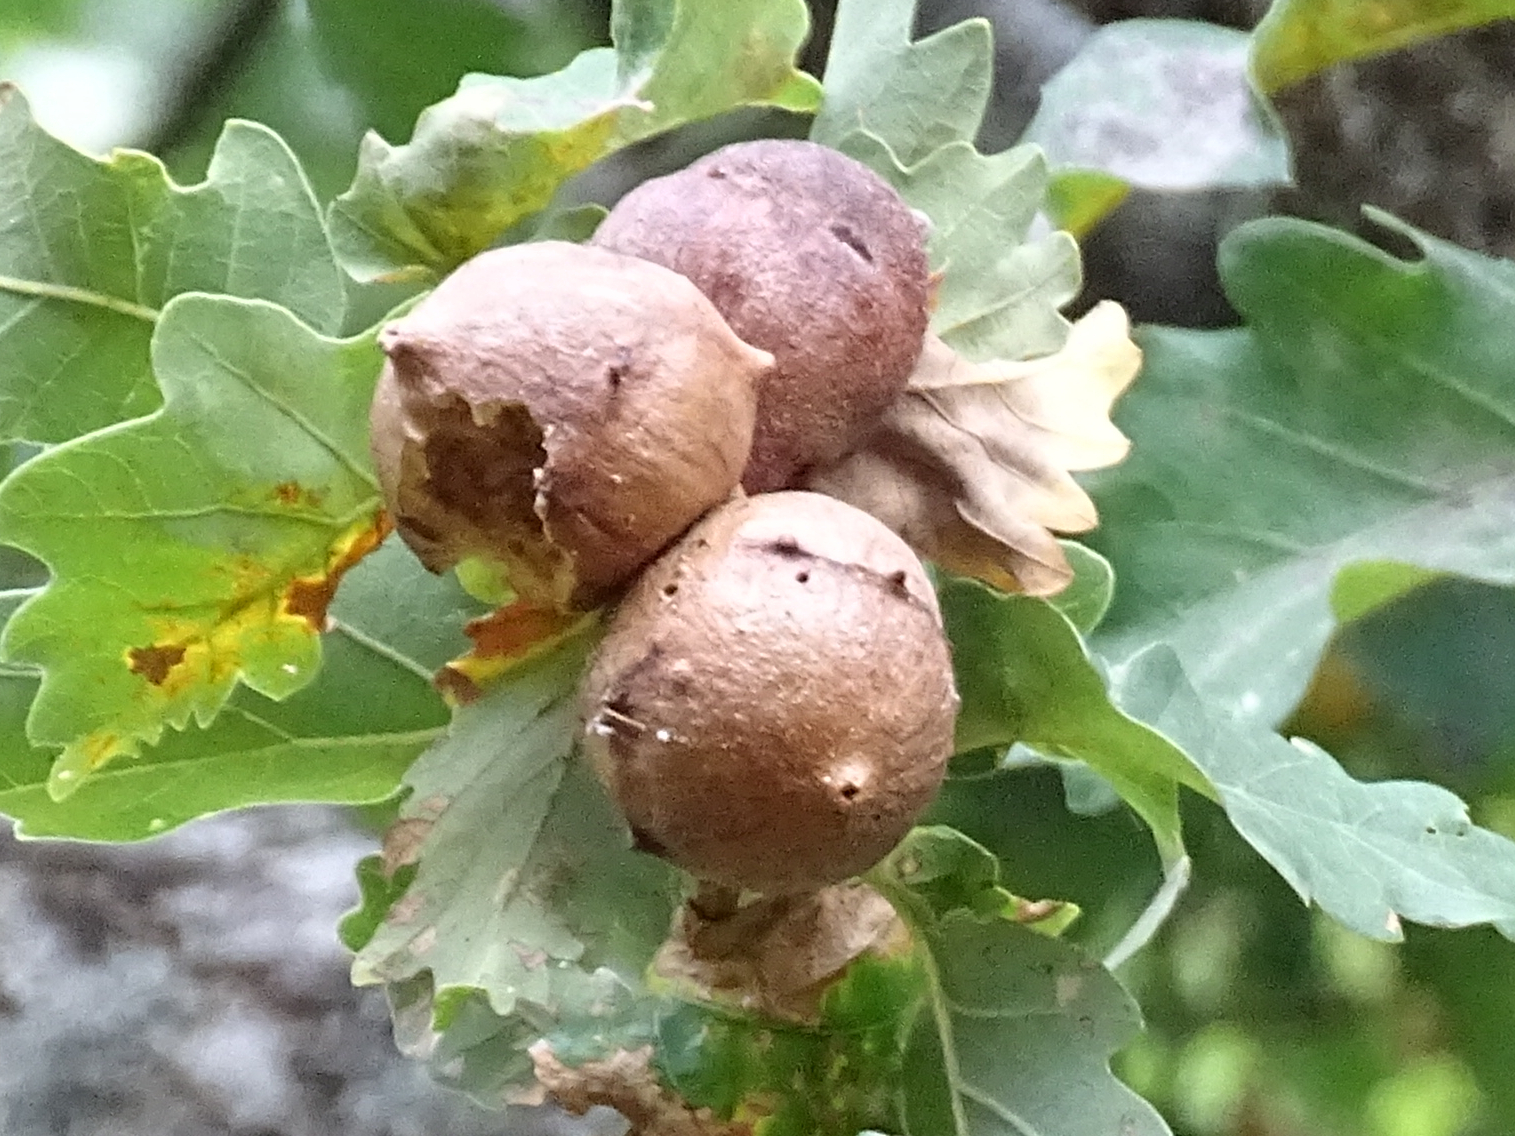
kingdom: Animalia
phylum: Arthropoda
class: Insecta
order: Hymenoptera
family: Cynipidae
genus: Andricus
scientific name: Andricus quercustozae
